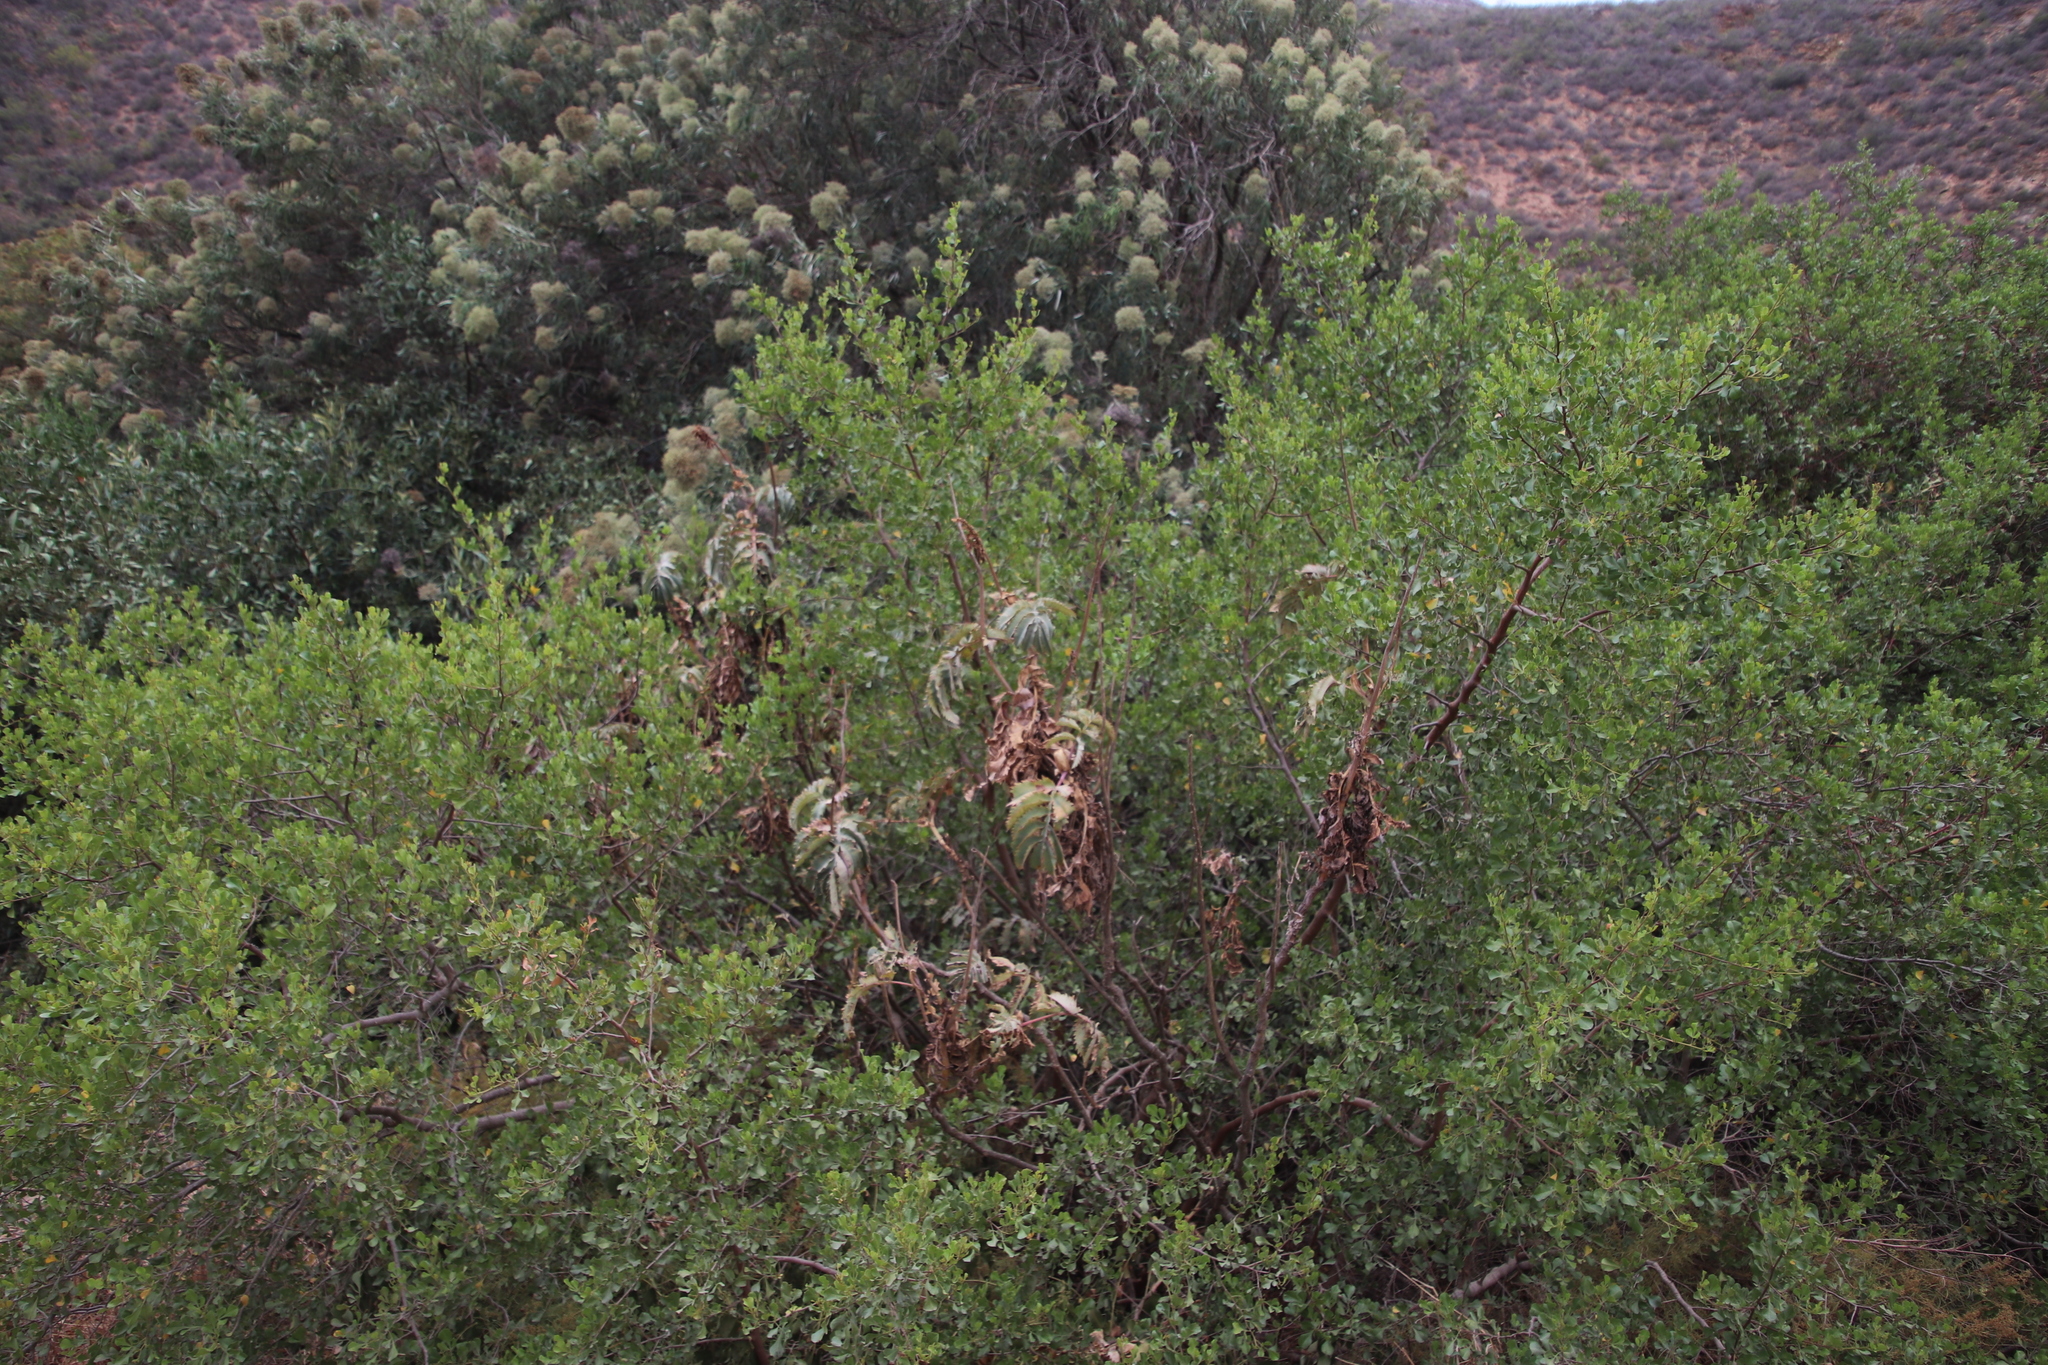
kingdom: Plantae
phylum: Tracheophyta
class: Magnoliopsida
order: Geraniales
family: Melianthaceae
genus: Melianthus
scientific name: Melianthus major
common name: Honey-flower
